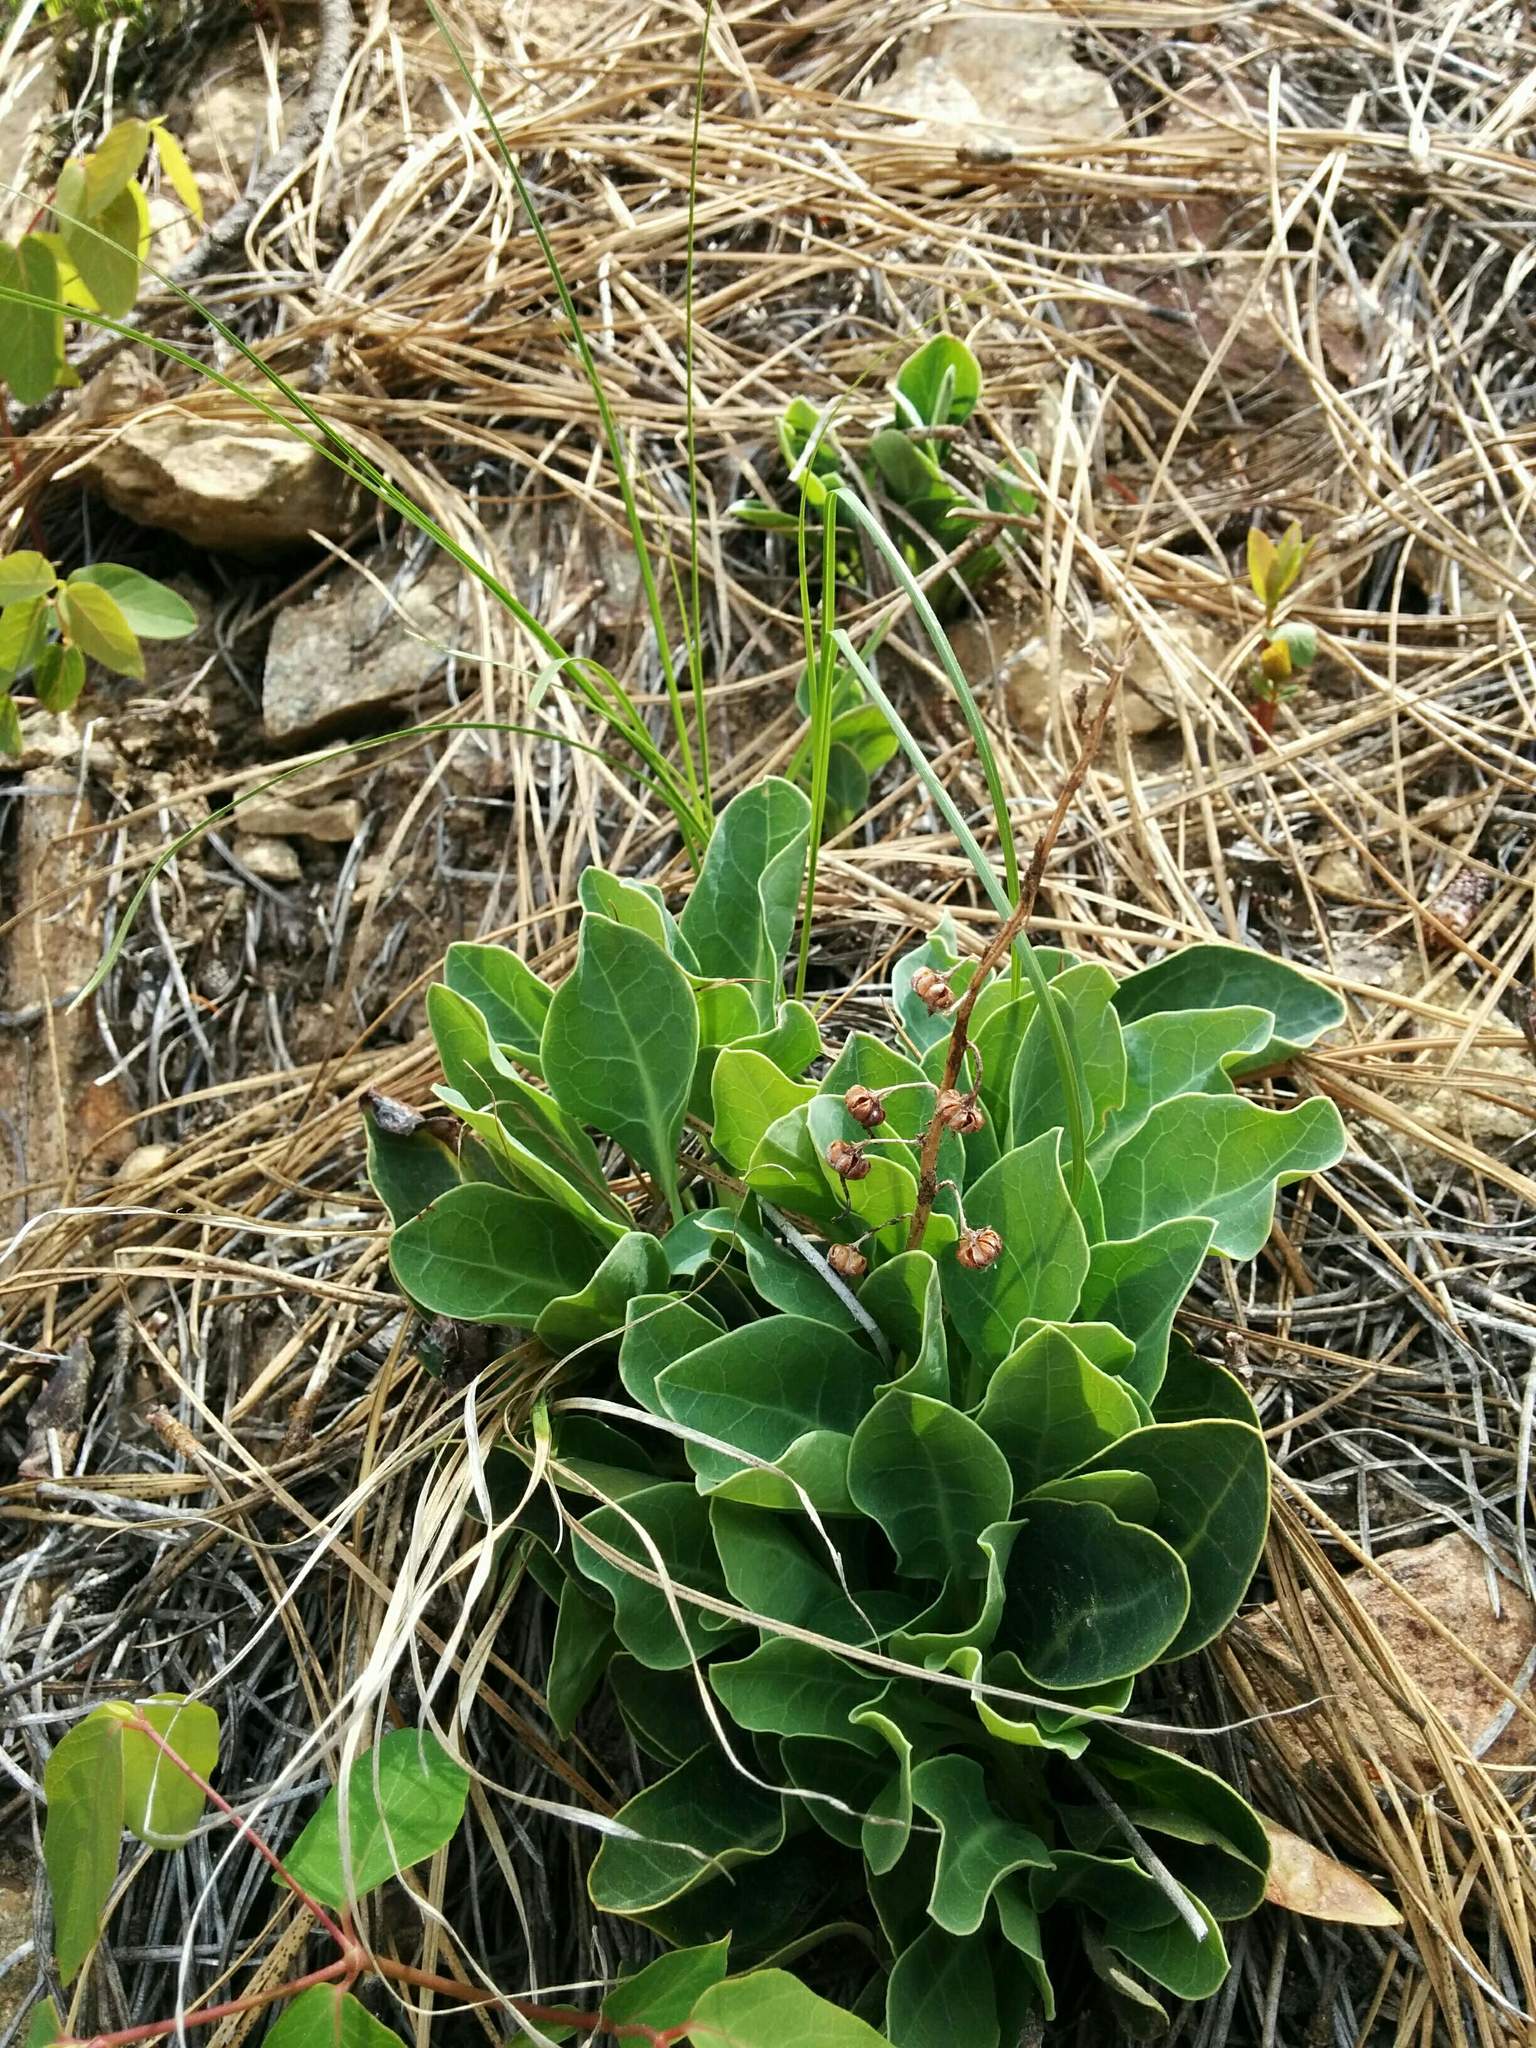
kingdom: Plantae
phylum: Tracheophyta
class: Magnoliopsida
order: Ericales
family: Ericaceae
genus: Pyrola
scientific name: Pyrola dentata
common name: Tooth-leaved wintergreen
